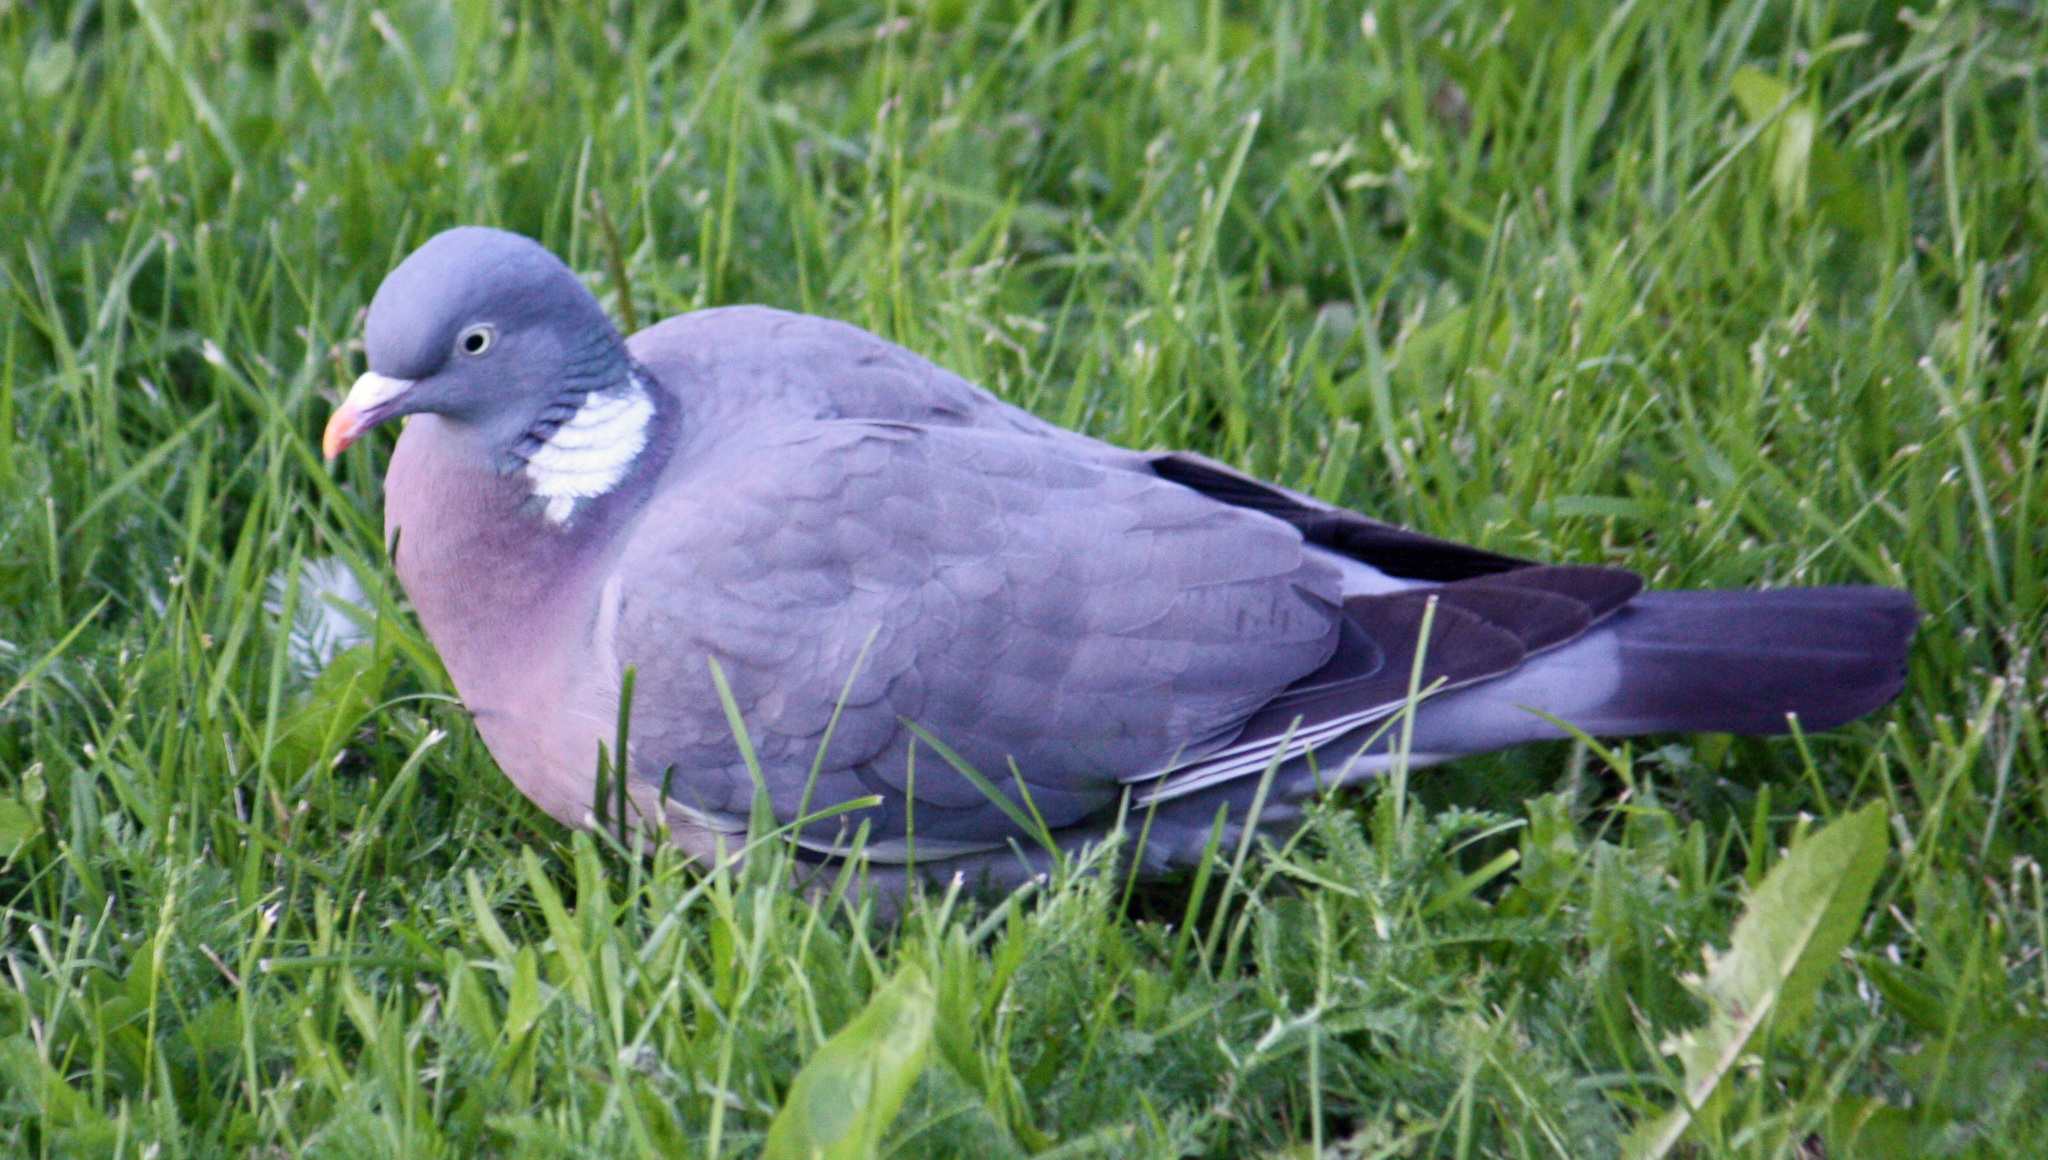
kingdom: Animalia
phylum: Chordata
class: Aves
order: Columbiformes
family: Columbidae
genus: Columba
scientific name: Columba palumbus
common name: Common wood pigeon
